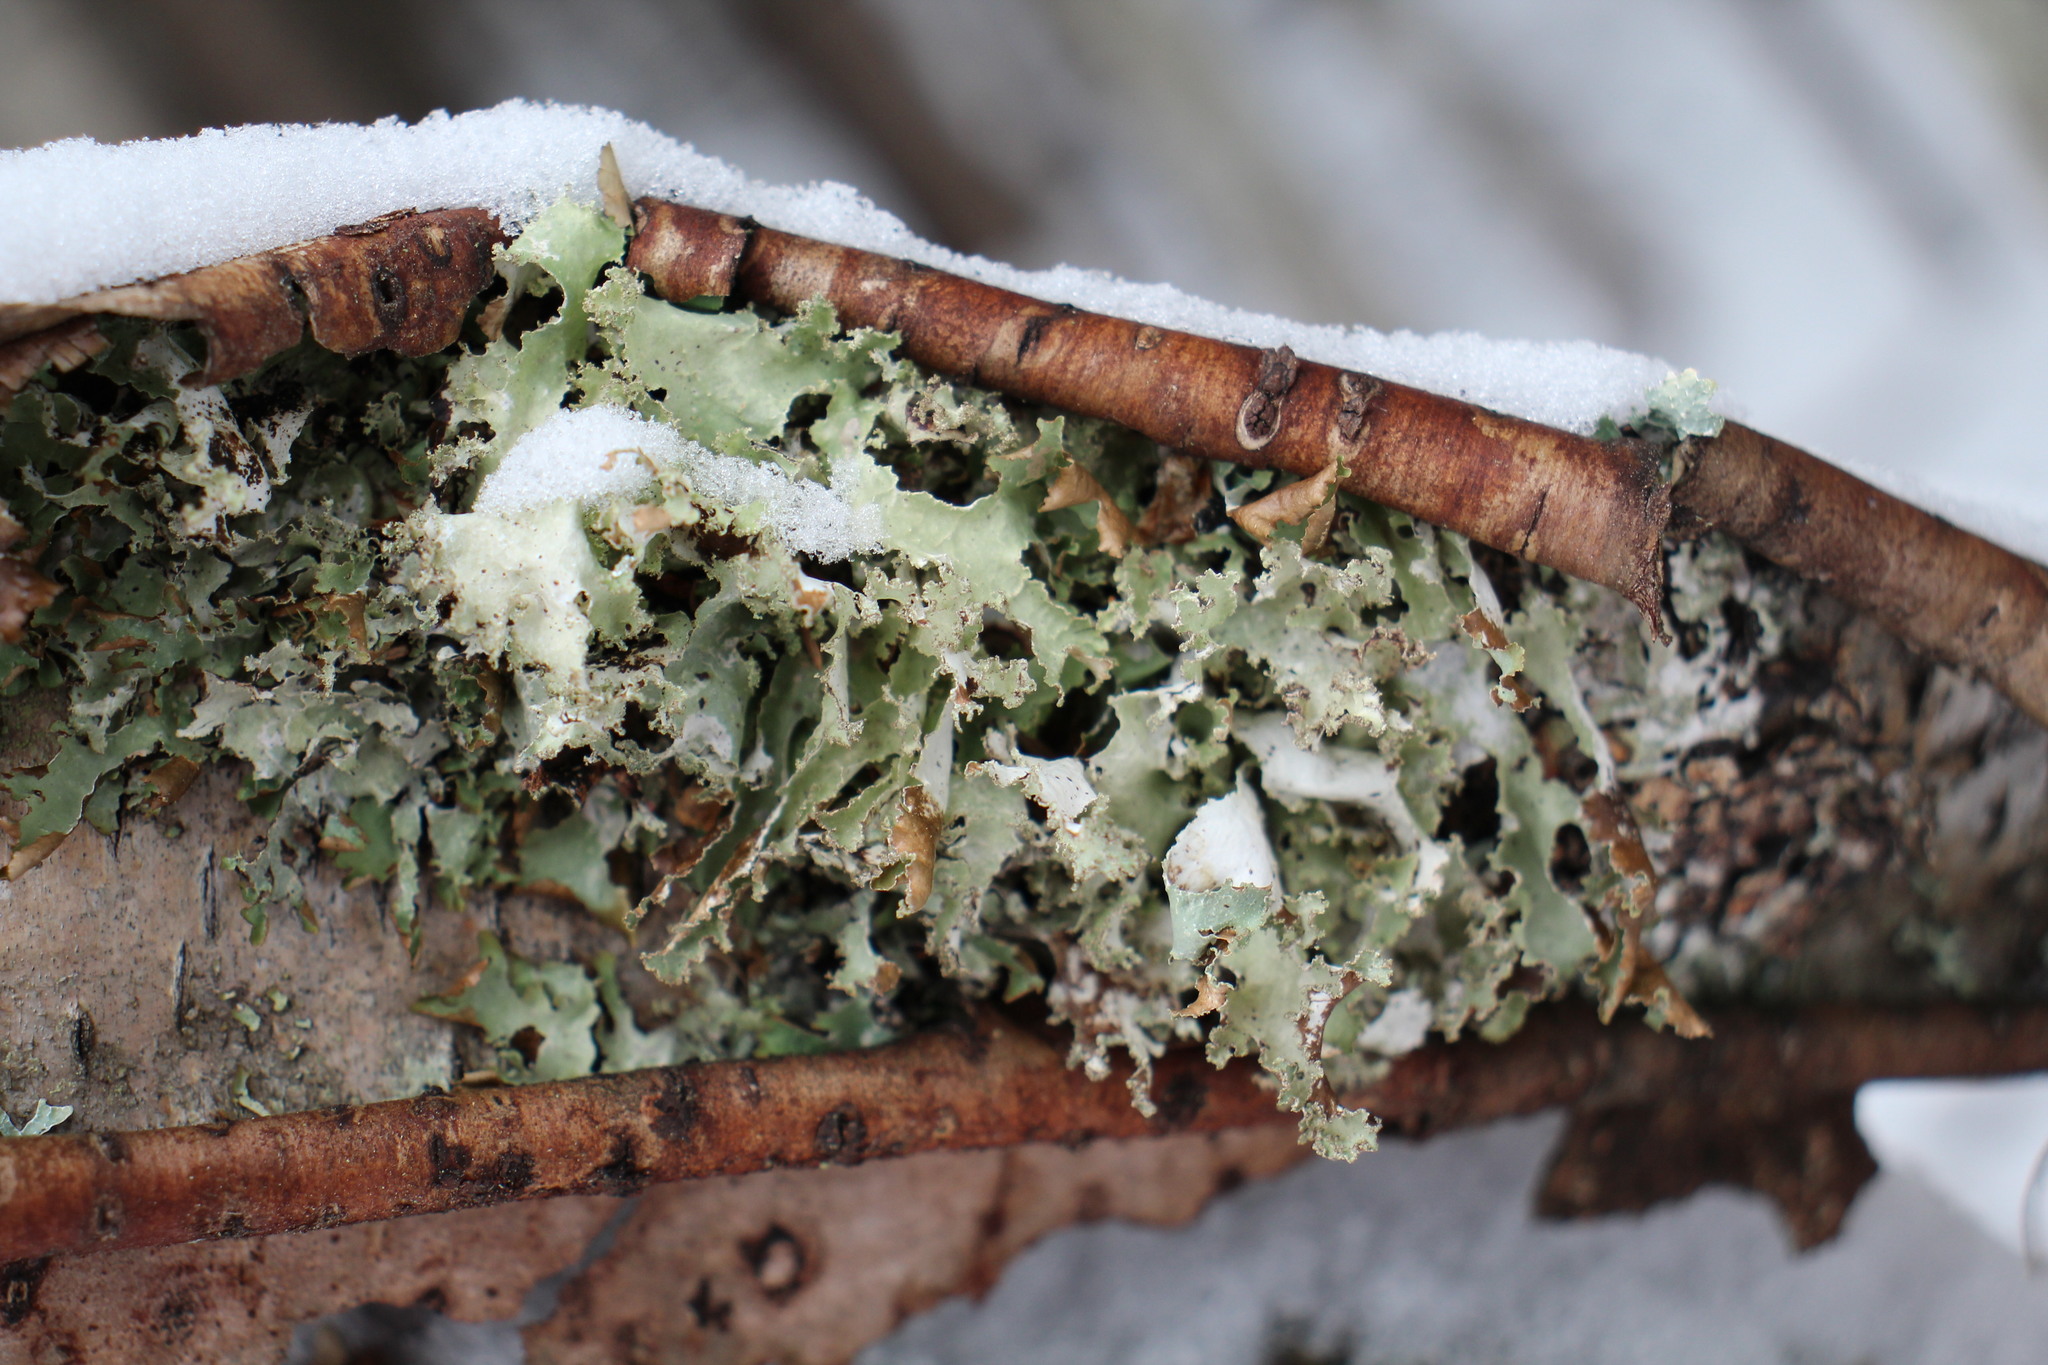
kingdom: Fungi
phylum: Ascomycota
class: Lecanoromycetes
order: Lecanorales
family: Parmeliaceae
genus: Platismatia
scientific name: Platismatia glauca
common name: Varied rag lichen
